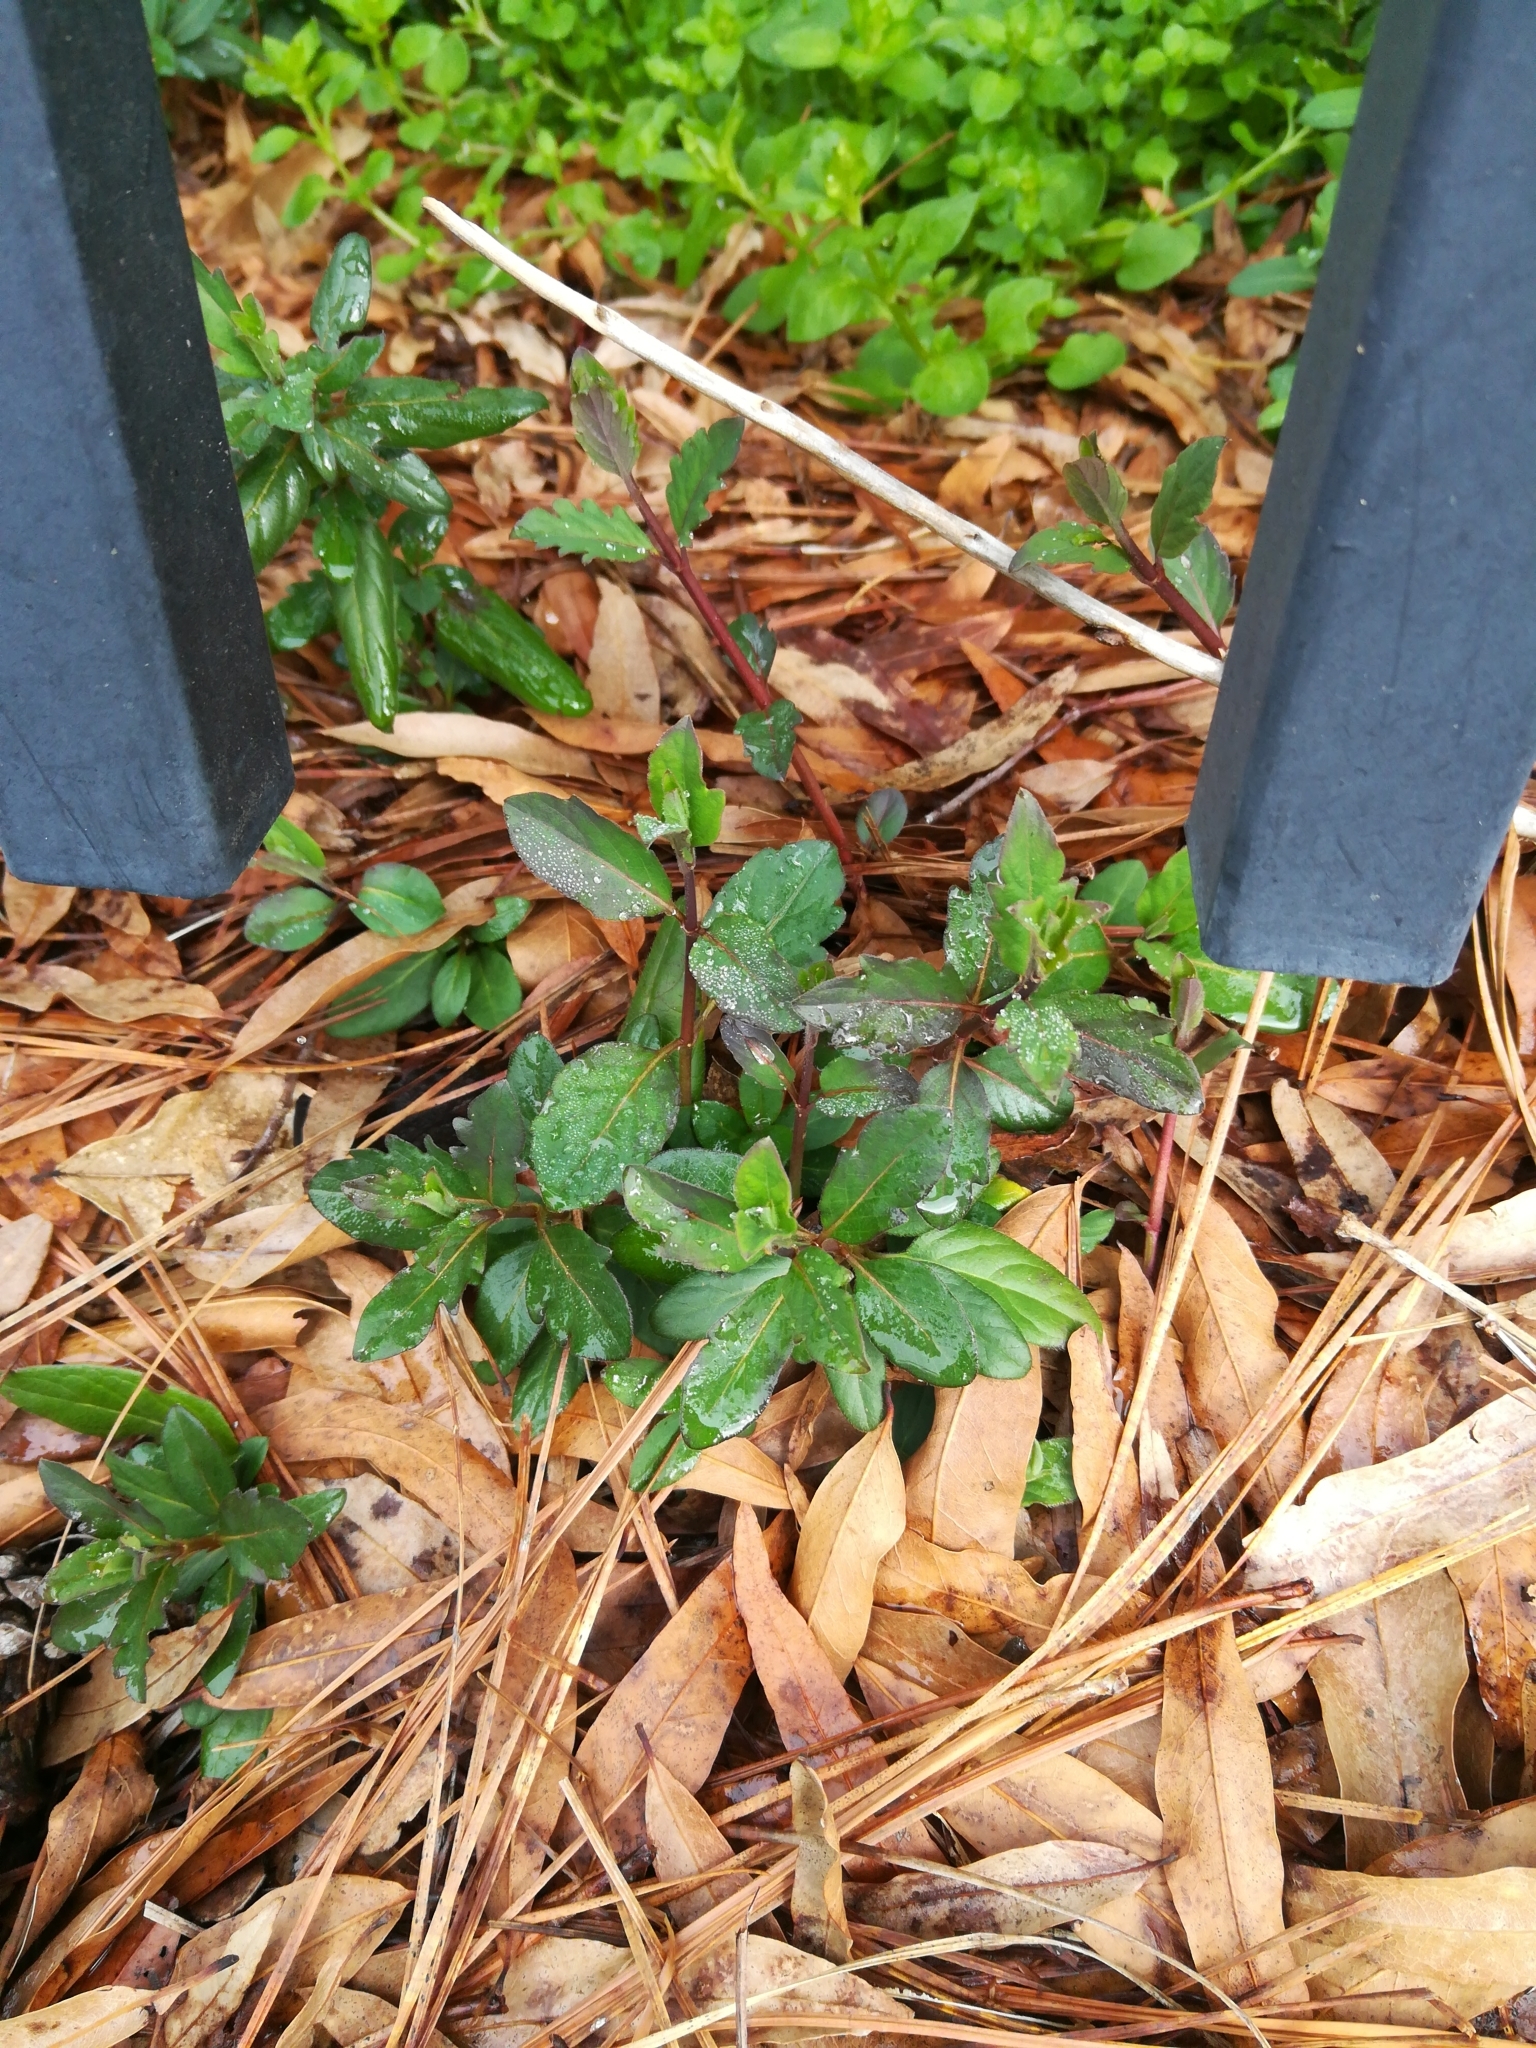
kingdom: Plantae
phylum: Tracheophyta
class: Magnoliopsida
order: Dipsacales
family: Caprifoliaceae
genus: Lonicera
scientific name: Lonicera japonica
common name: Japanese honeysuckle
